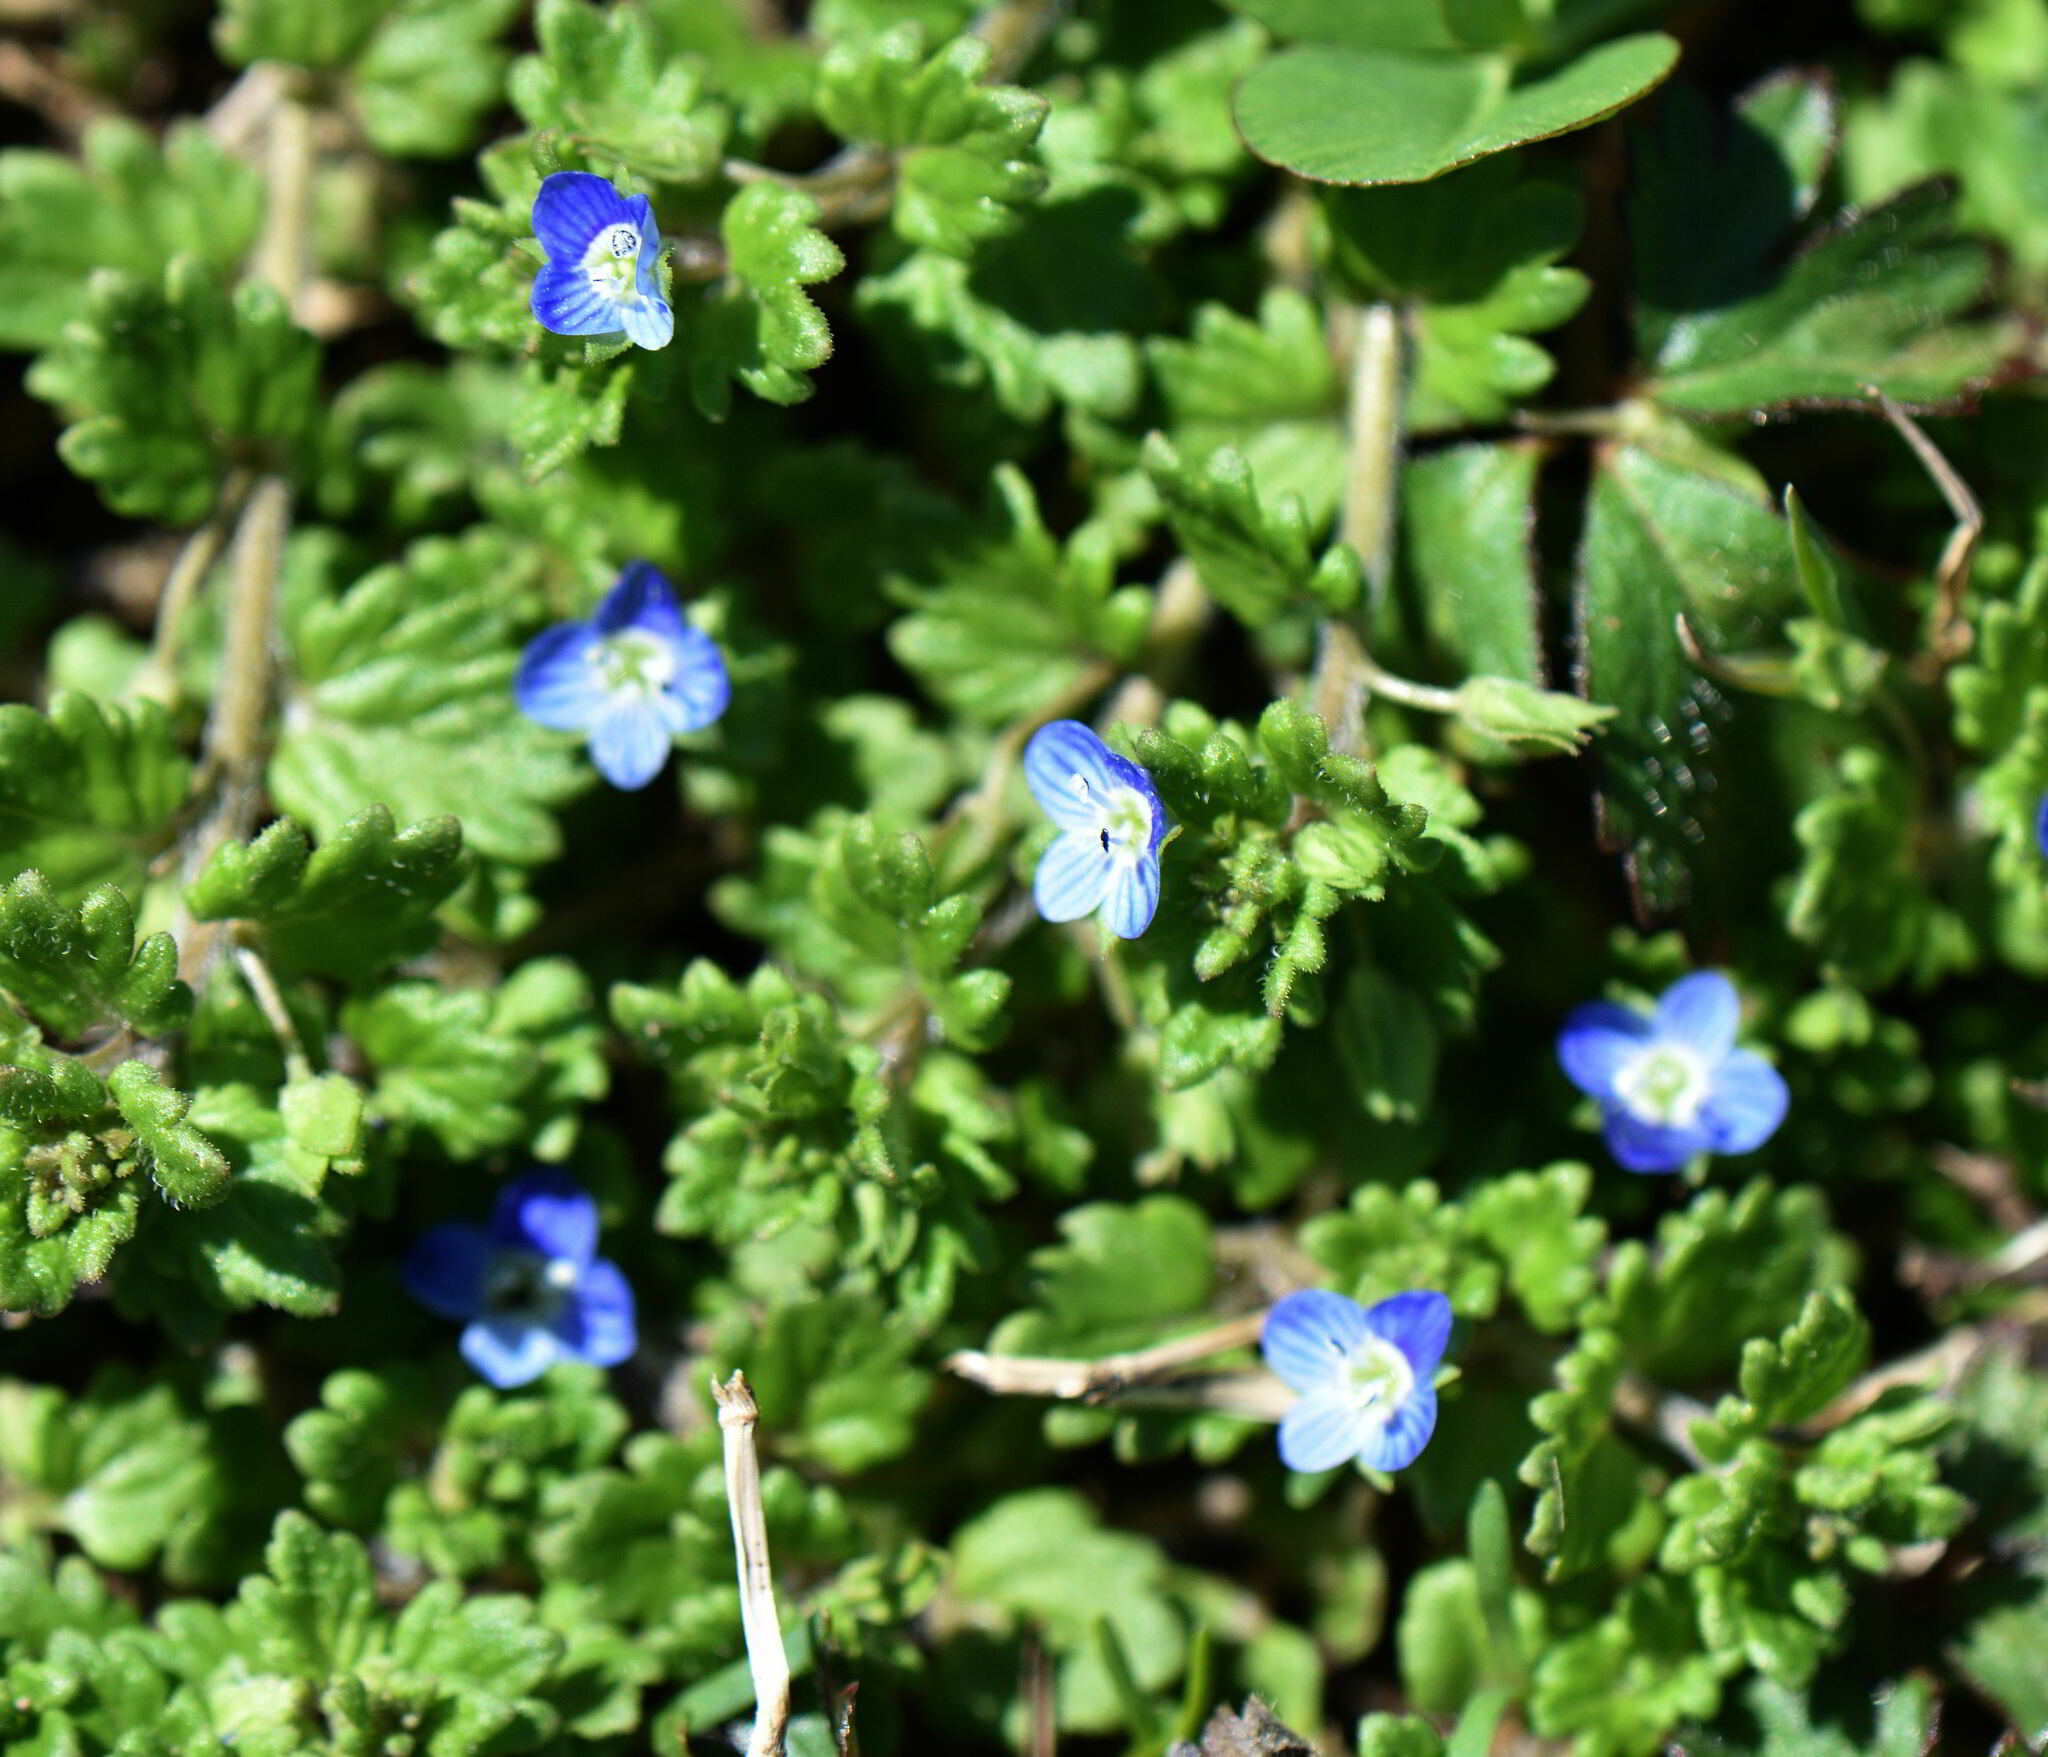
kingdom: Plantae
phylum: Tracheophyta
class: Magnoliopsida
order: Lamiales
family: Plantaginaceae
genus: Veronica
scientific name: Veronica polita
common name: Grey field-speedwell
